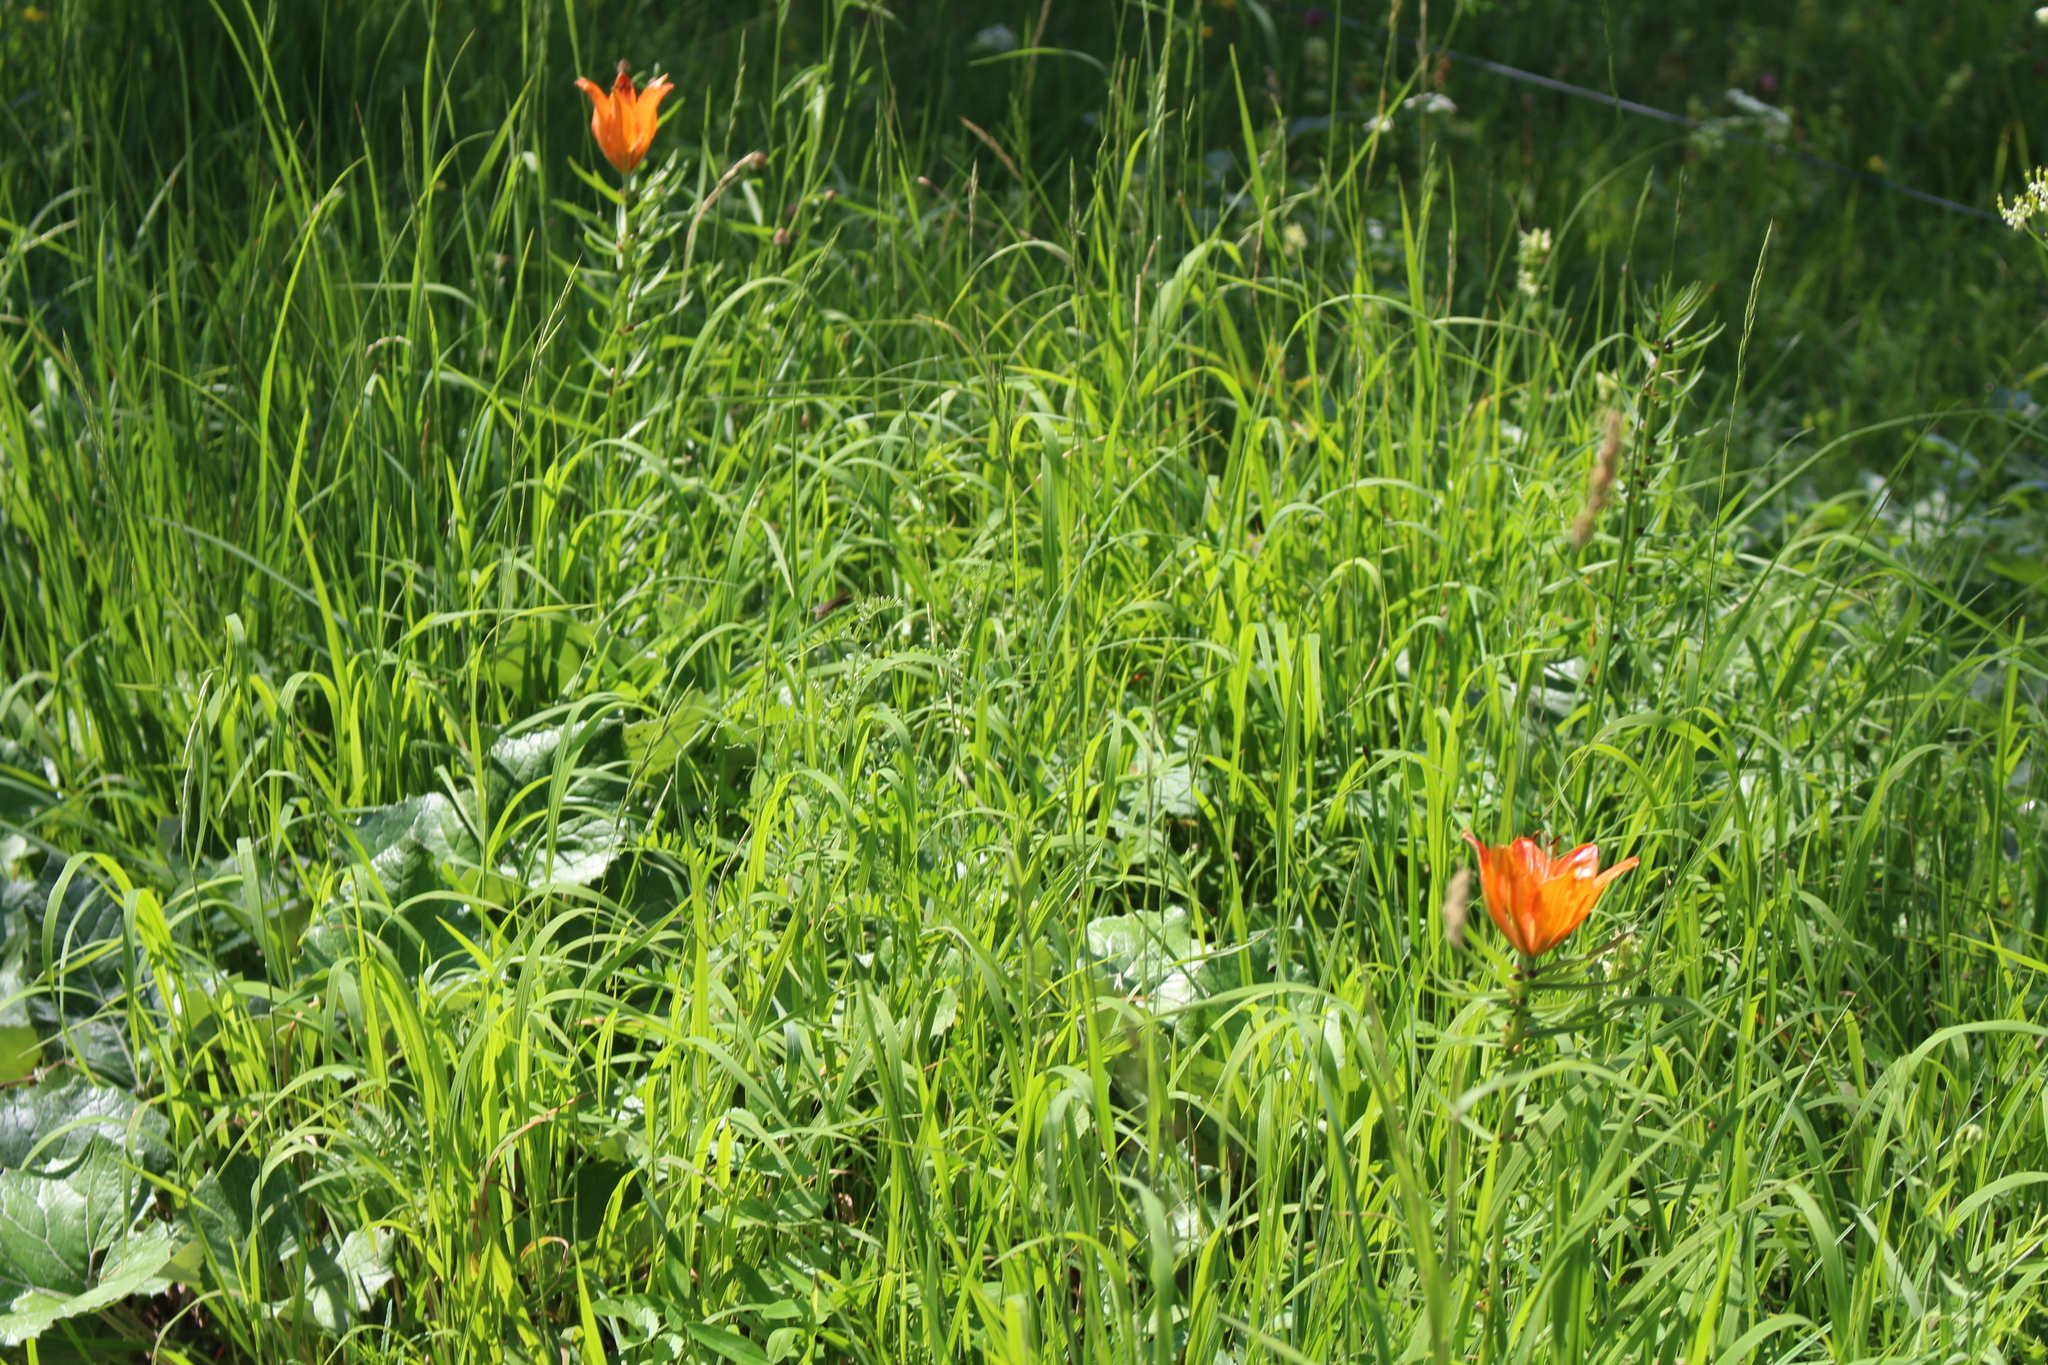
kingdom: Plantae
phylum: Tracheophyta
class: Liliopsida
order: Liliales
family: Liliaceae
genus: Lilium
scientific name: Lilium bulbiferum
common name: Orange lily
